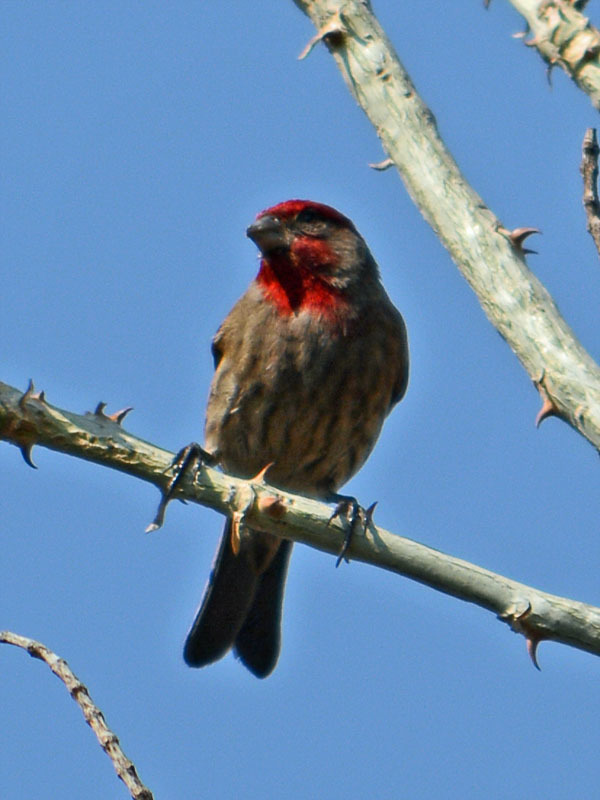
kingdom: Animalia
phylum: Chordata
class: Aves
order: Passeriformes
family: Fringillidae
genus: Haemorhous
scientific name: Haemorhous mexicanus
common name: House finch
